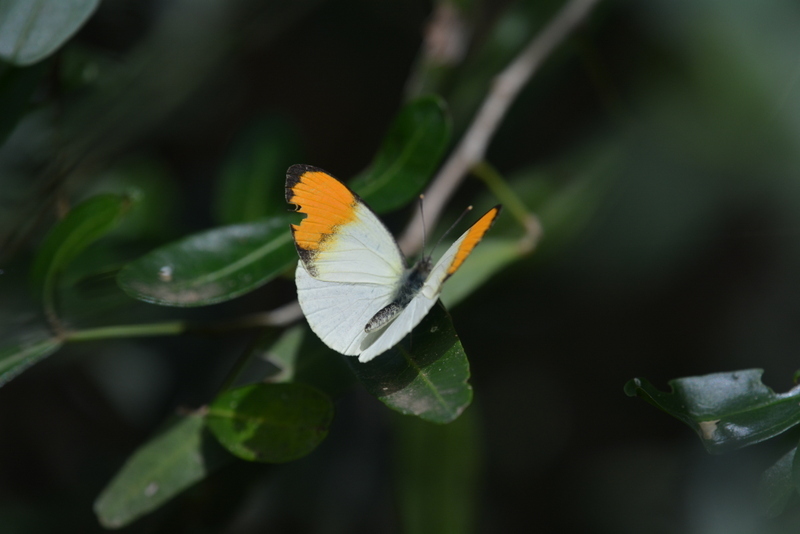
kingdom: Animalia
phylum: Arthropoda
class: Insecta
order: Lepidoptera
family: Pieridae
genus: Colotis
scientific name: Colotis auxo
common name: Sulphur orange tip
